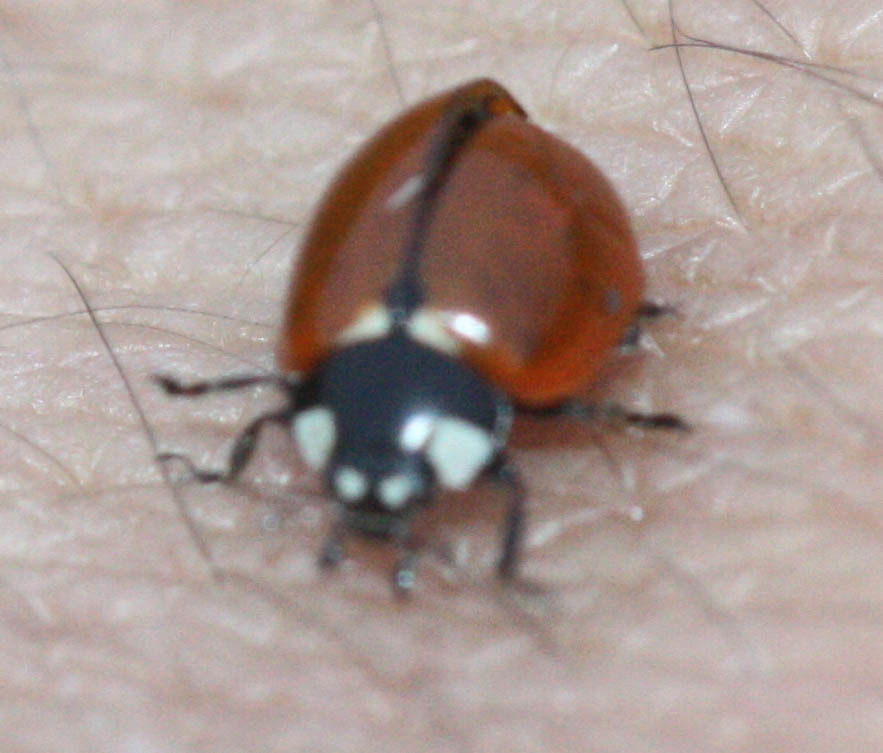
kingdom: Animalia
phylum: Arthropoda
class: Insecta
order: Coleoptera
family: Coccinellidae
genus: Coccinella
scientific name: Coccinella californica
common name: Lady beetle
